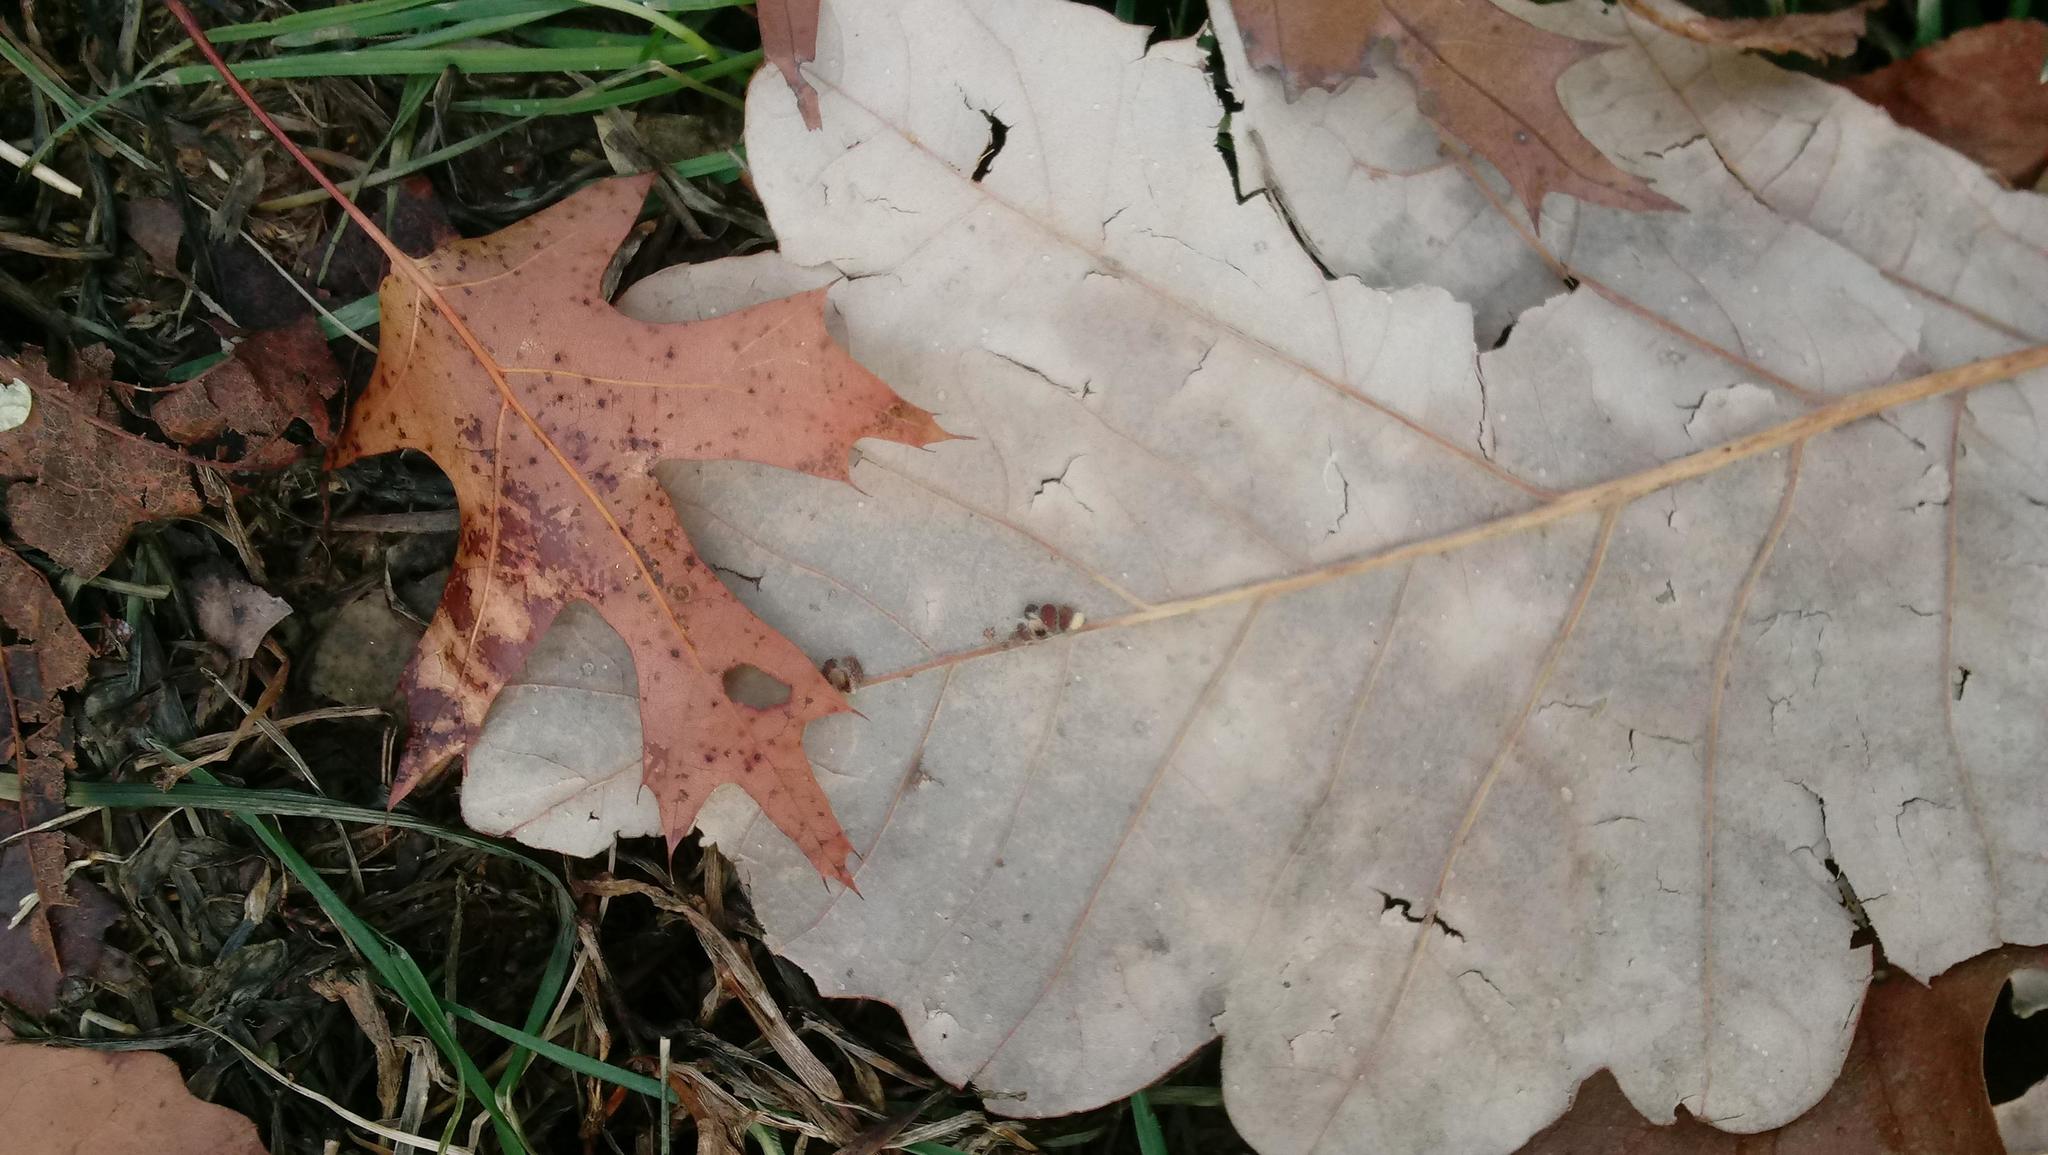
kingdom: Animalia
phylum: Arthropoda
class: Insecta
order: Hymenoptera
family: Cynipidae
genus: Andricus
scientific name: Andricus Druon ignotum
